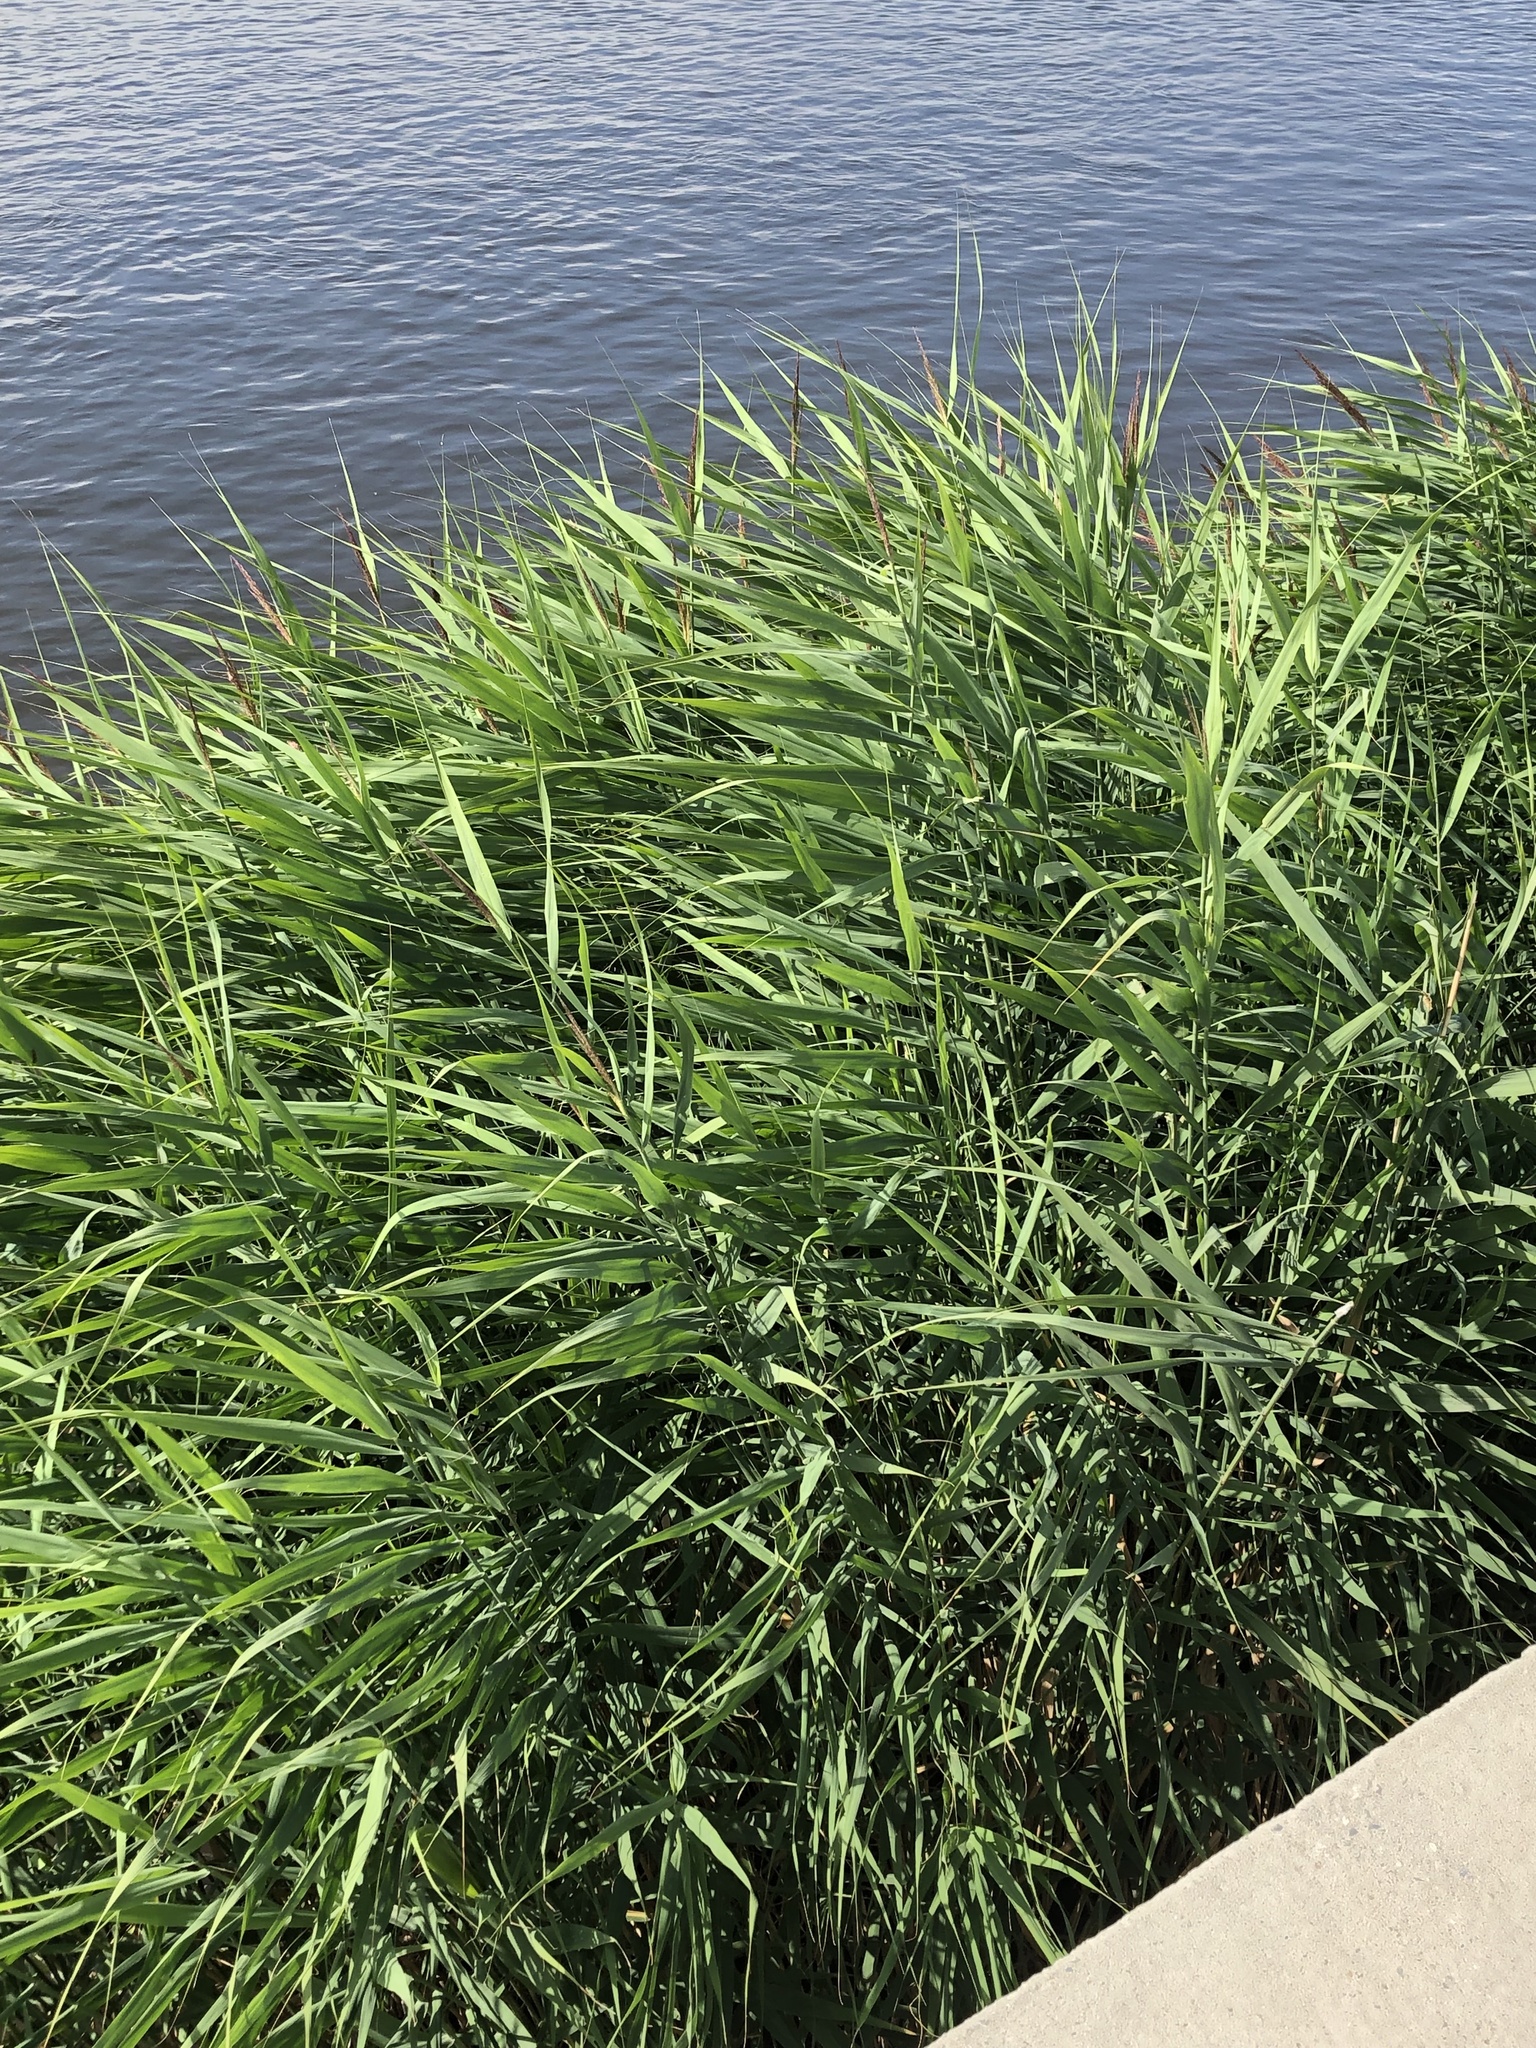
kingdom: Plantae
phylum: Tracheophyta
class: Liliopsida
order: Poales
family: Poaceae
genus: Phragmites
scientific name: Phragmites australis
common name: Common reed
